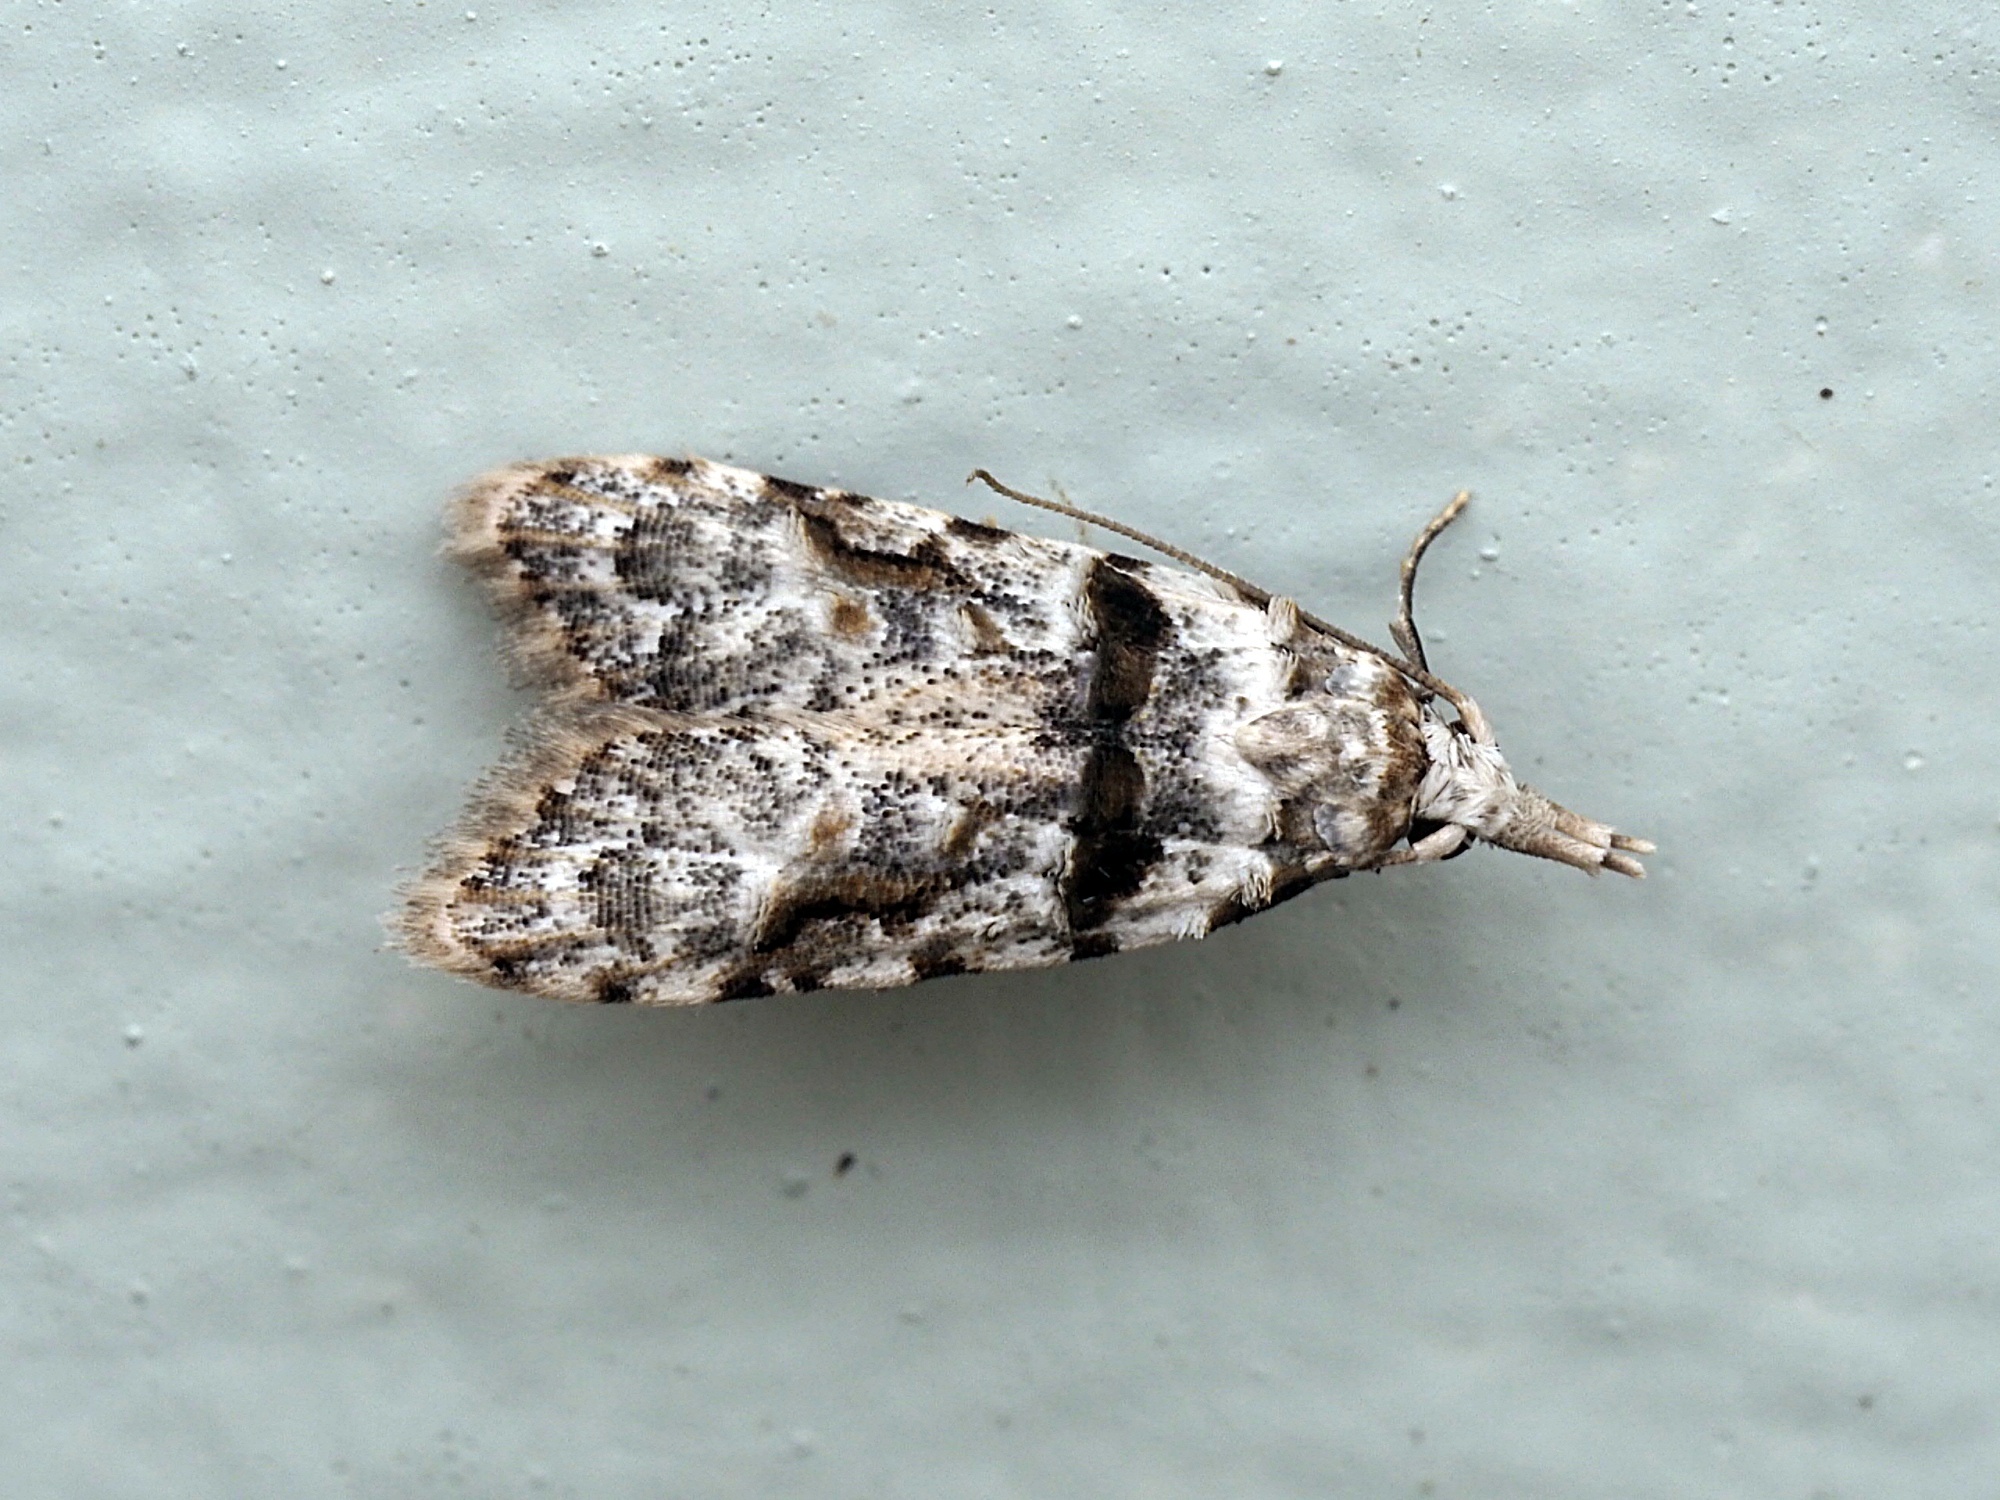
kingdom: Animalia
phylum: Arthropoda
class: Insecta
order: Lepidoptera
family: Carposinidae
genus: Coscinoptycha
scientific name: Coscinoptycha improbana
